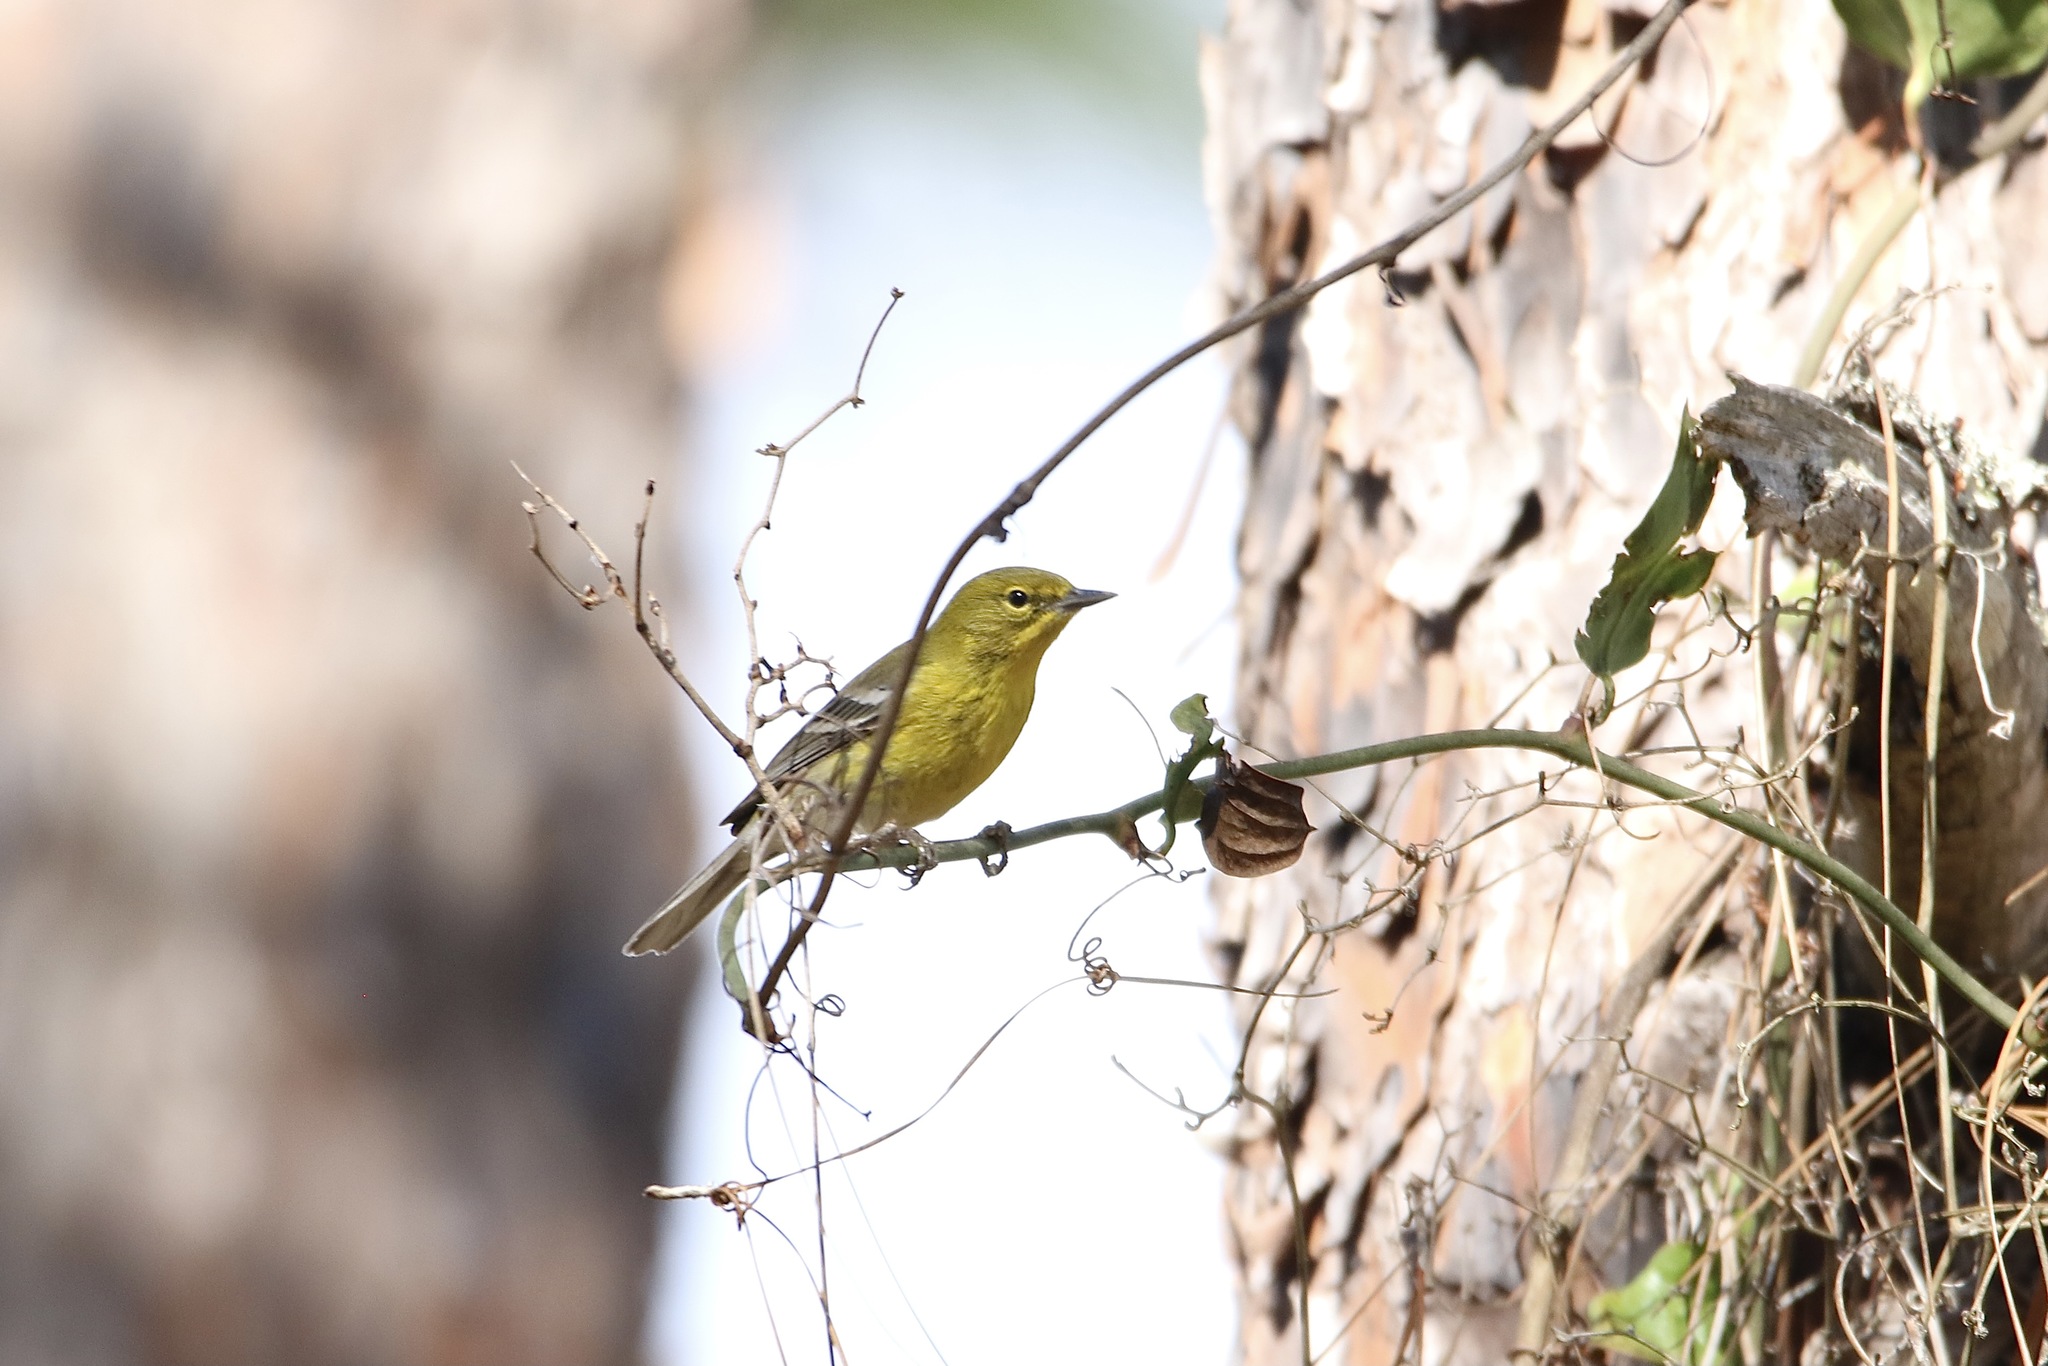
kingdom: Animalia
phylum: Chordata
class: Aves
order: Passeriformes
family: Parulidae
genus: Setophaga
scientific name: Setophaga pinus
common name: Pine warbler
